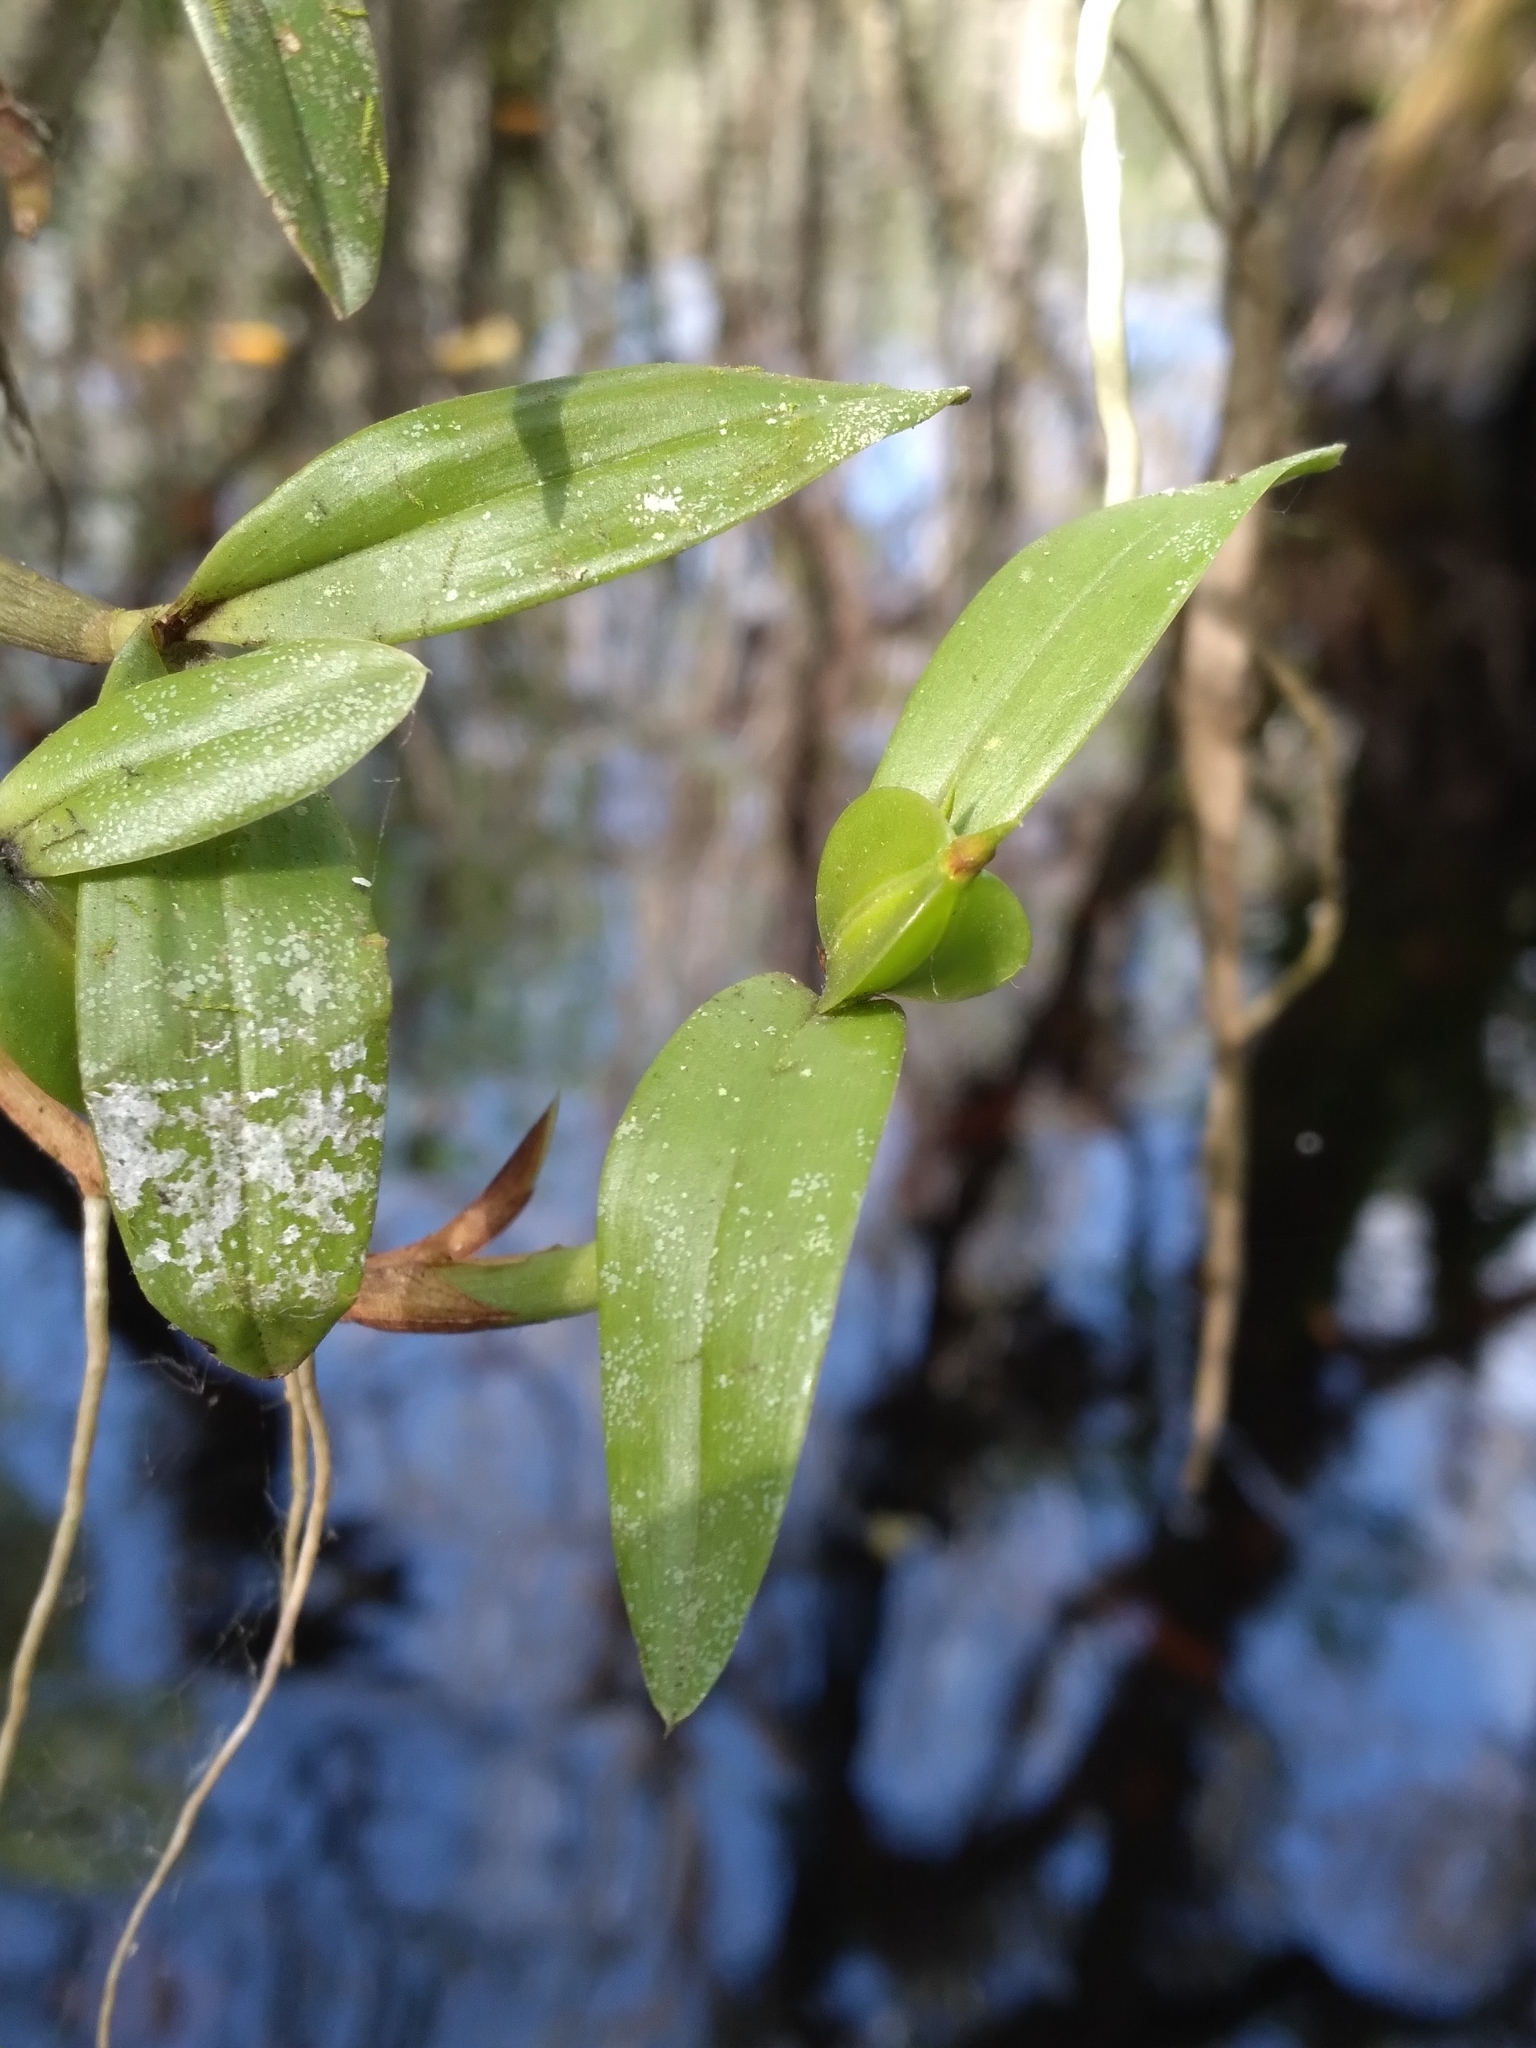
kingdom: Plantae
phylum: Tracheophyta
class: Liliopsida
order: Asparagales
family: Orchidaceae
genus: Prosthechea
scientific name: Prosthechea pygmaea
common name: Dwarf butterfly orchid
